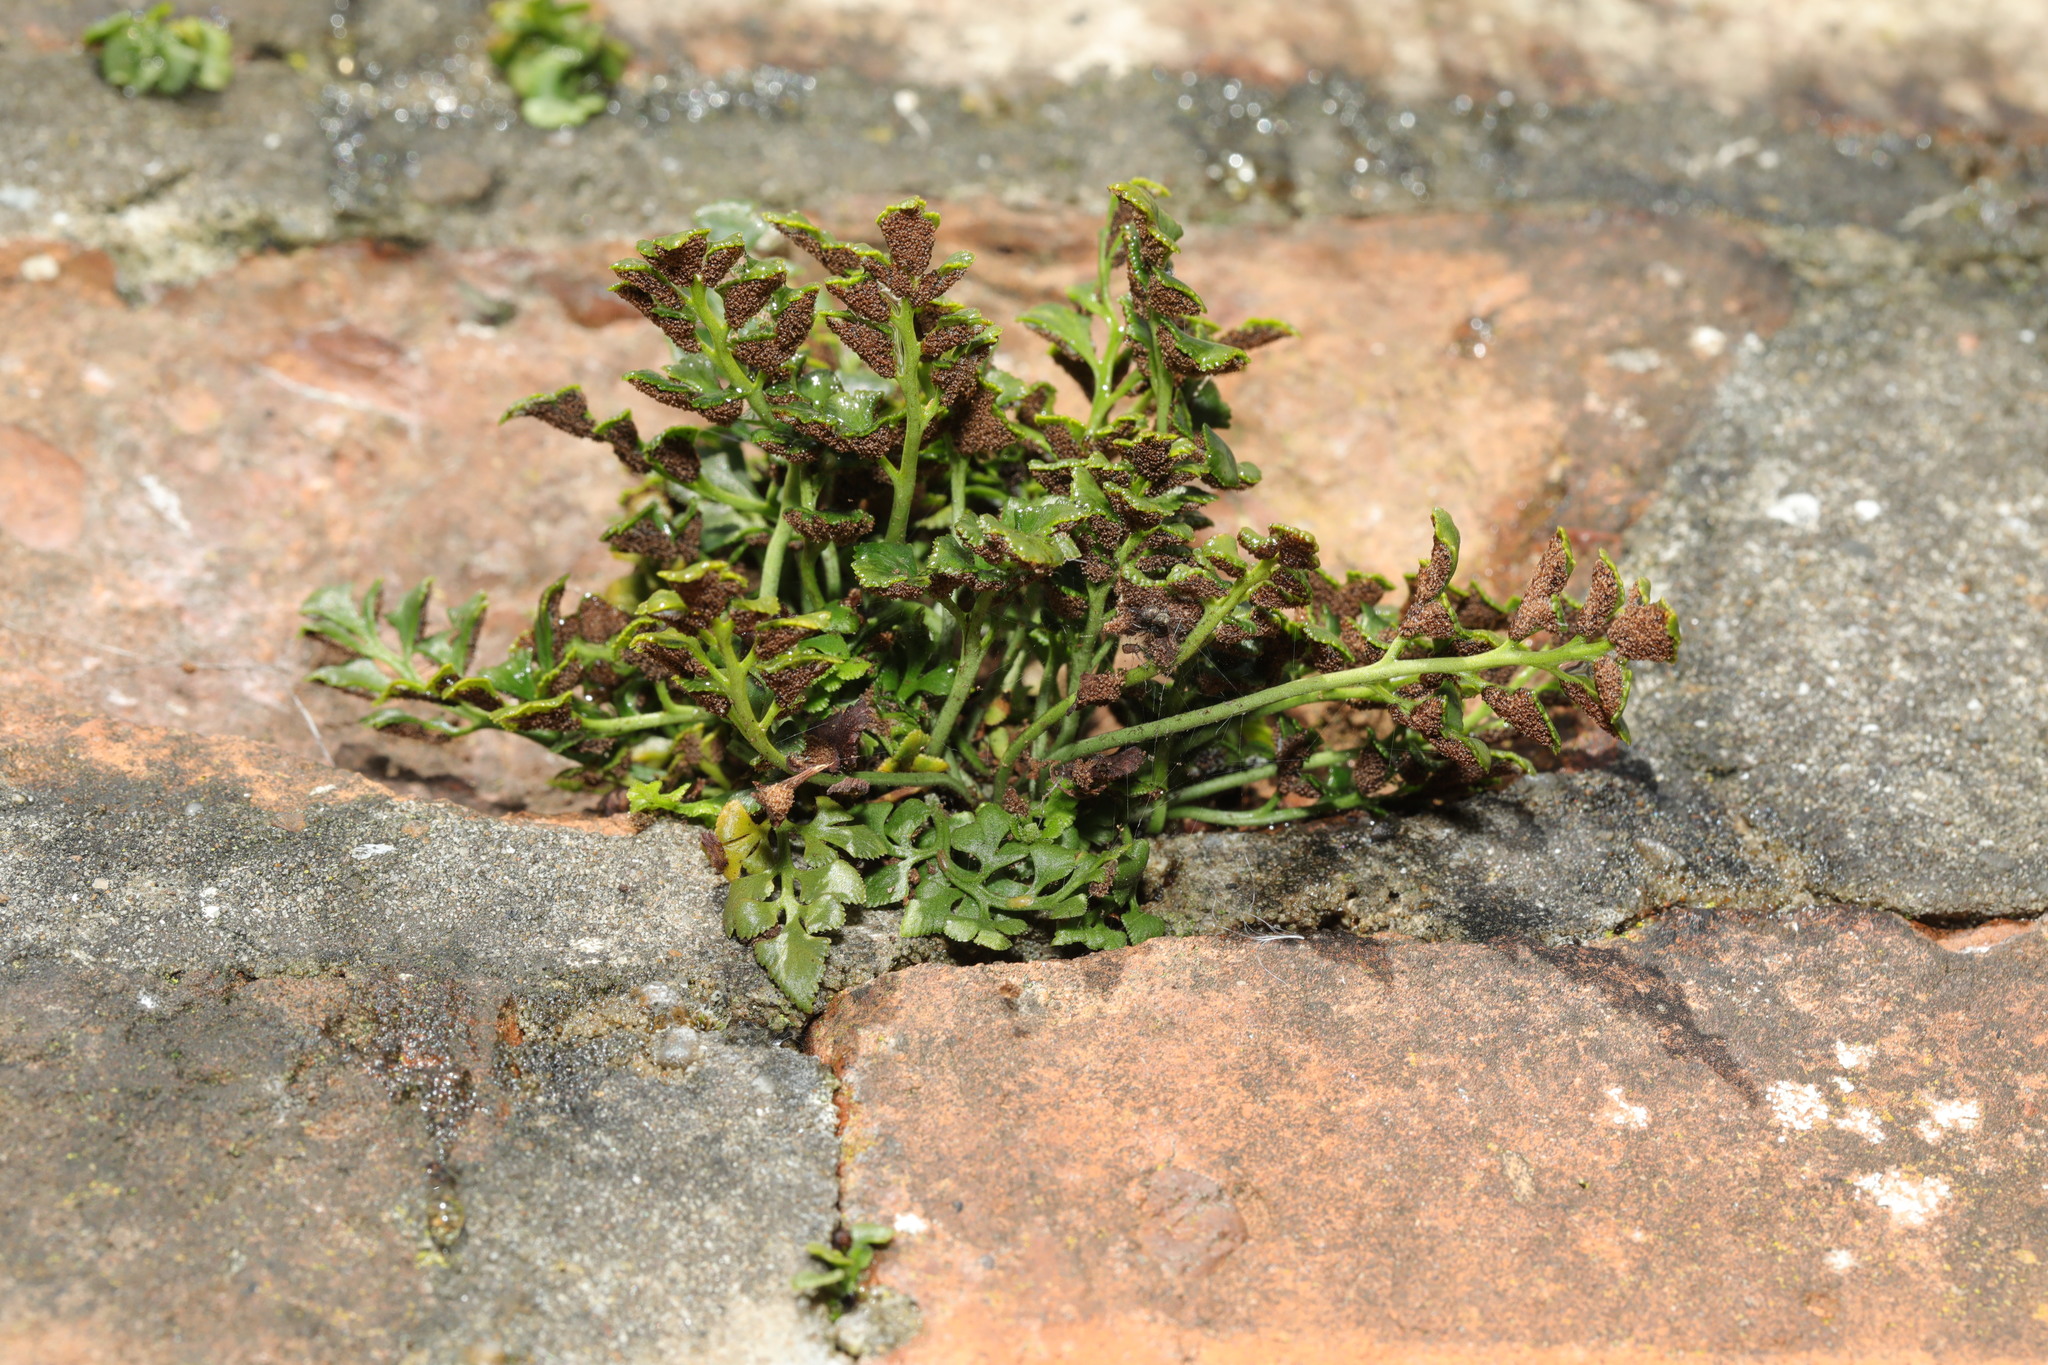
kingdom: Plantae
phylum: Tracheophyta
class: Polypodiopsida
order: Polypodiales
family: Aspleniaceae
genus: Asplenium
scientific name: Asplenium ruta-muraria
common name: Wall-rue
